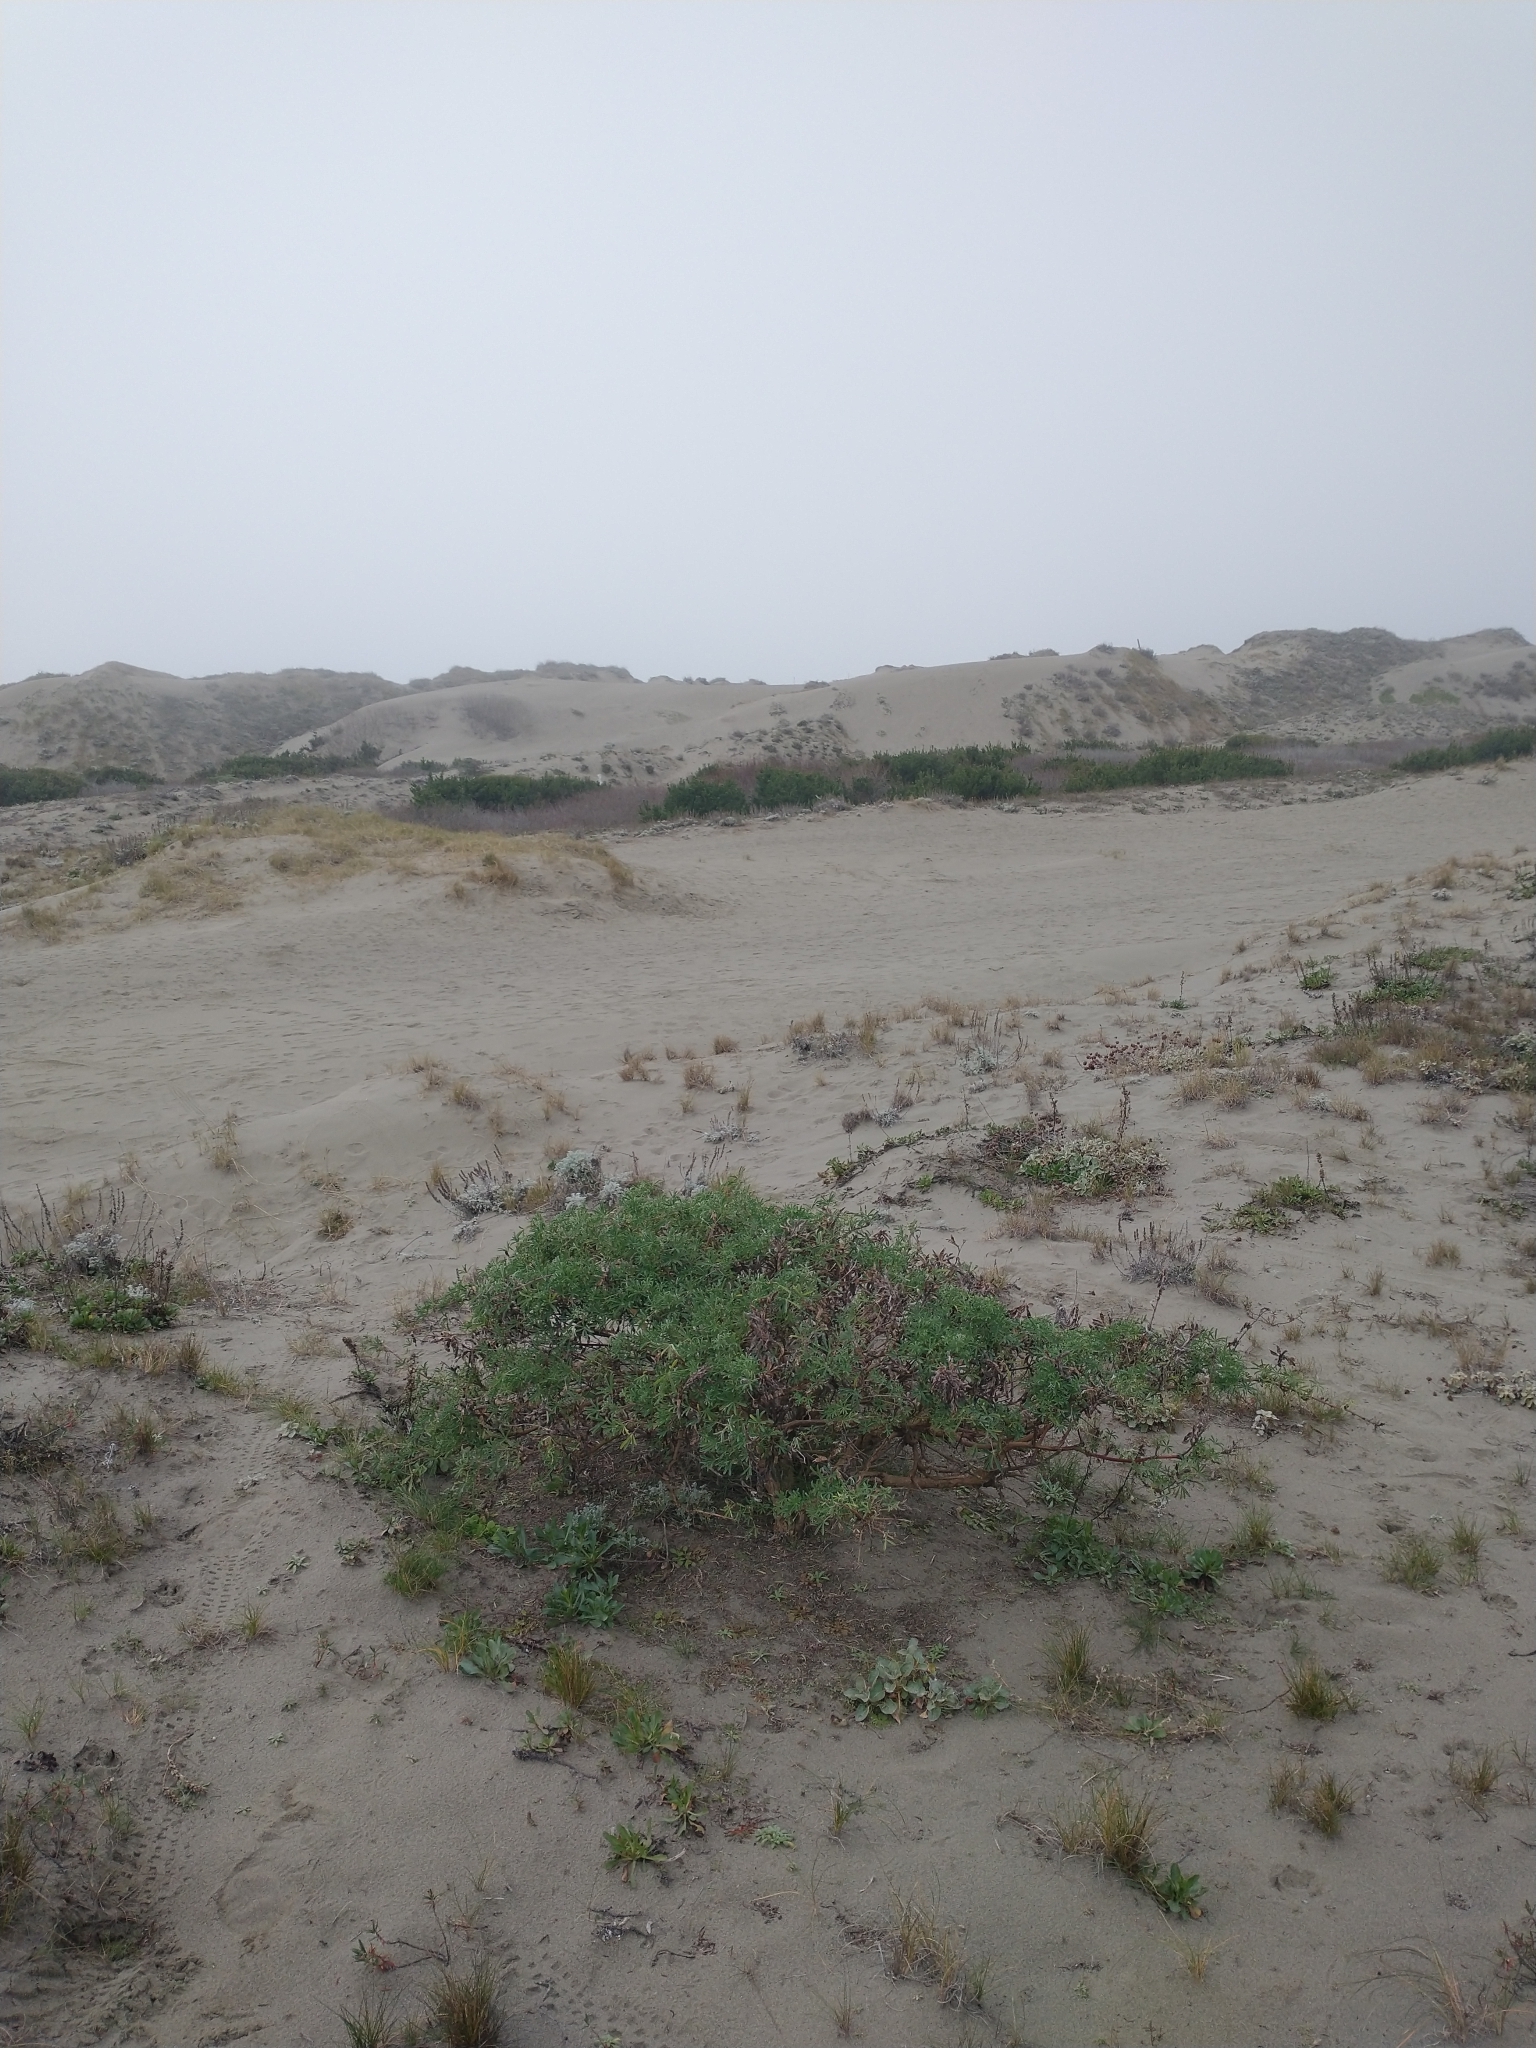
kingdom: Plantae
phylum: Tracheophyta
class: Magnoliopsida
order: Fabales
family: Fabaceae
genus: Lupinus
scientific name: Lupinus arboreus
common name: Yellow bush lupine
